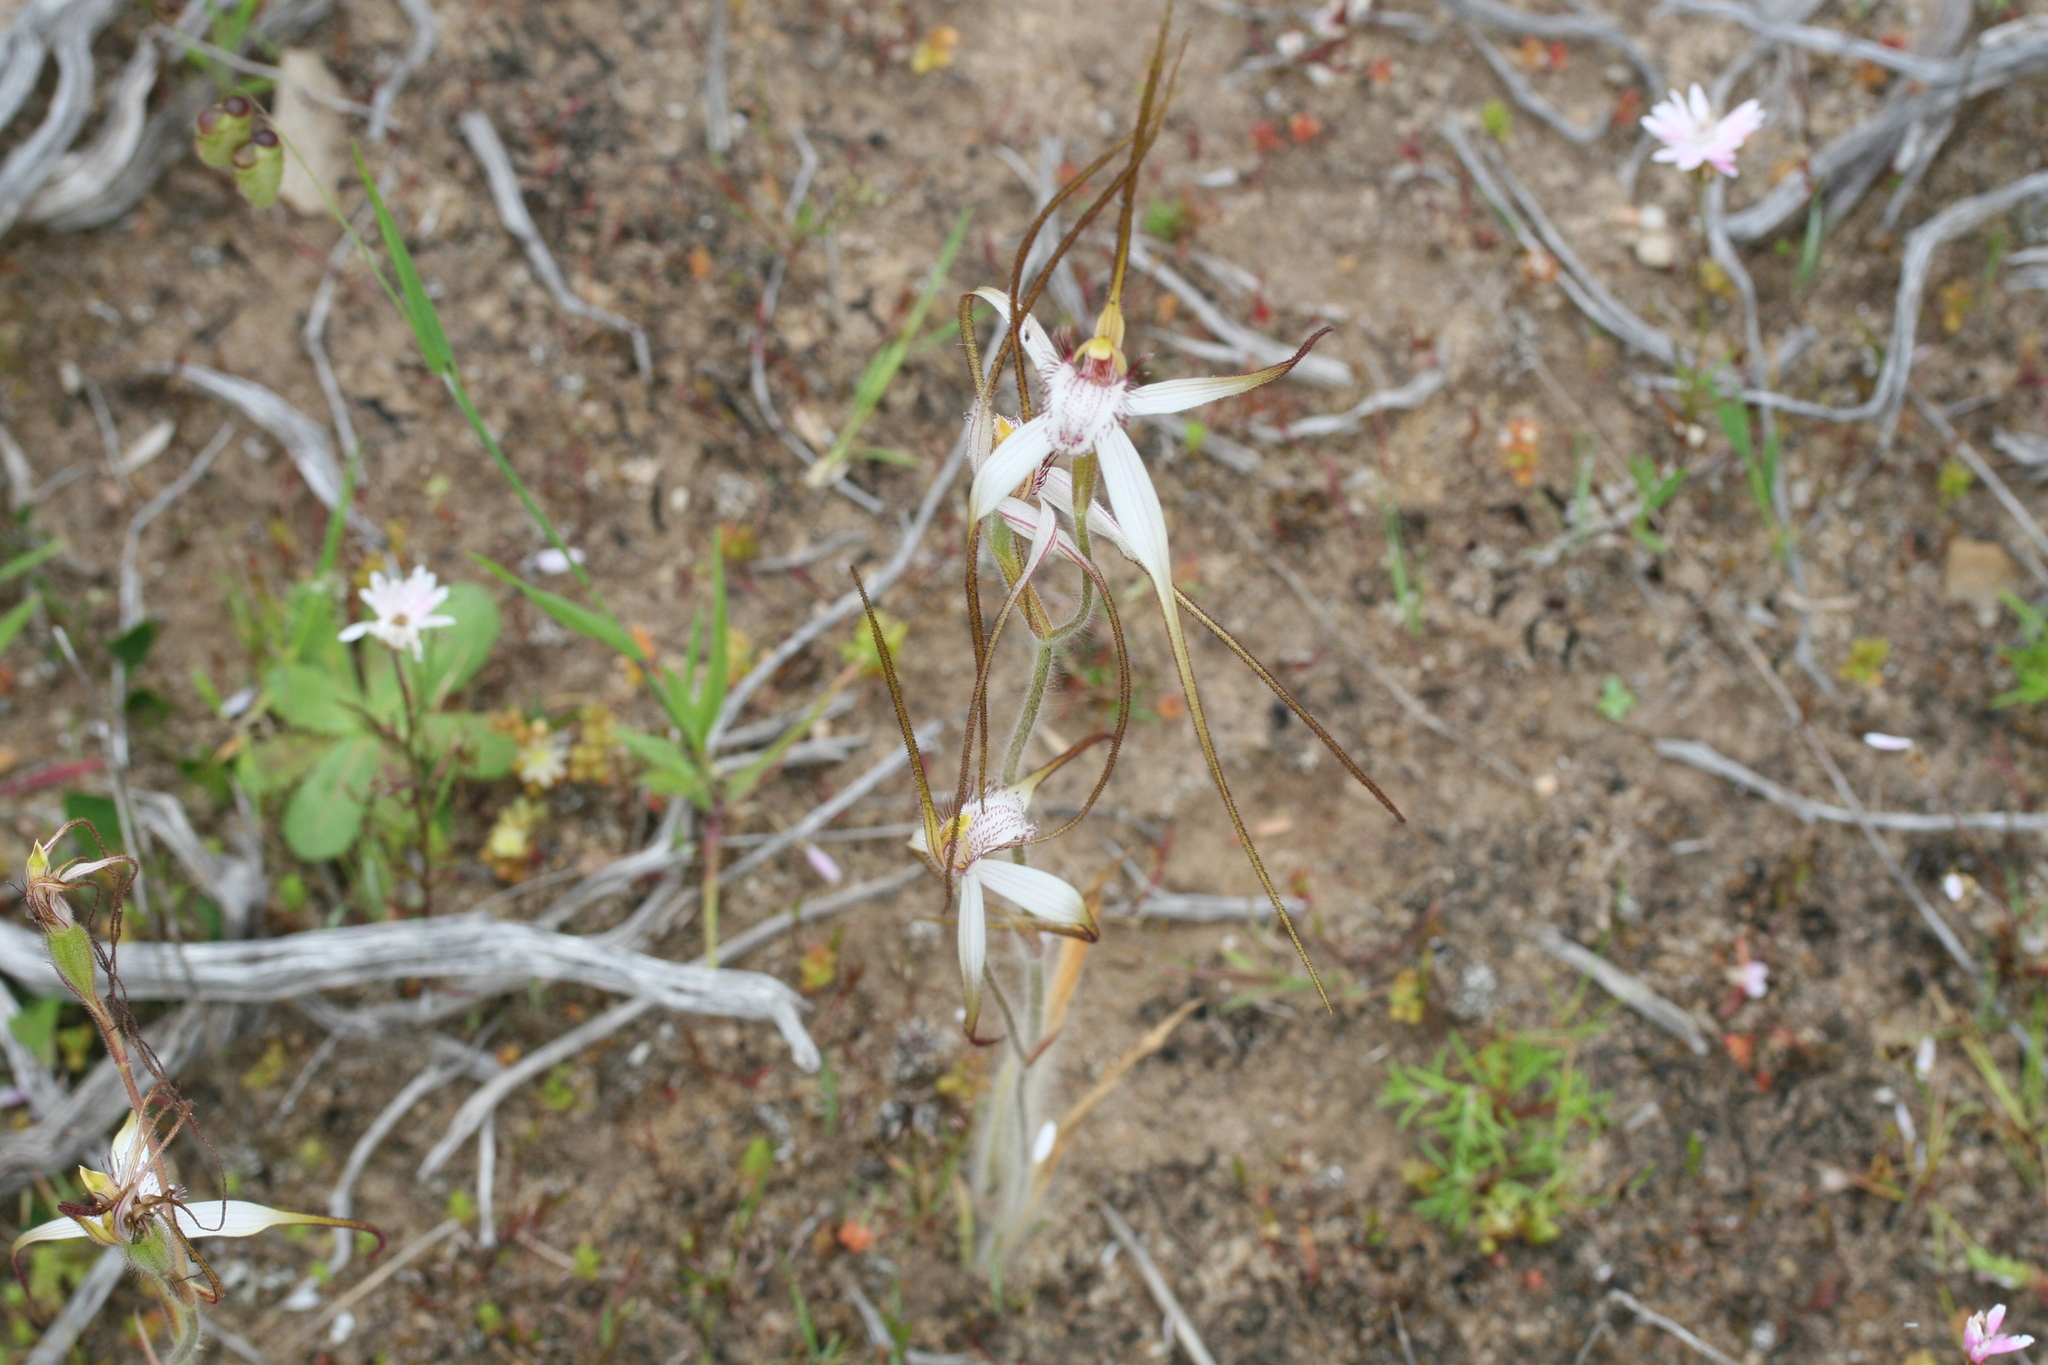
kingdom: Plantae
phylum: Tracheophyta
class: Liliopsida
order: Asparagales
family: Orchidaceae
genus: Caladenia
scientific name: Caladenia longicauda
